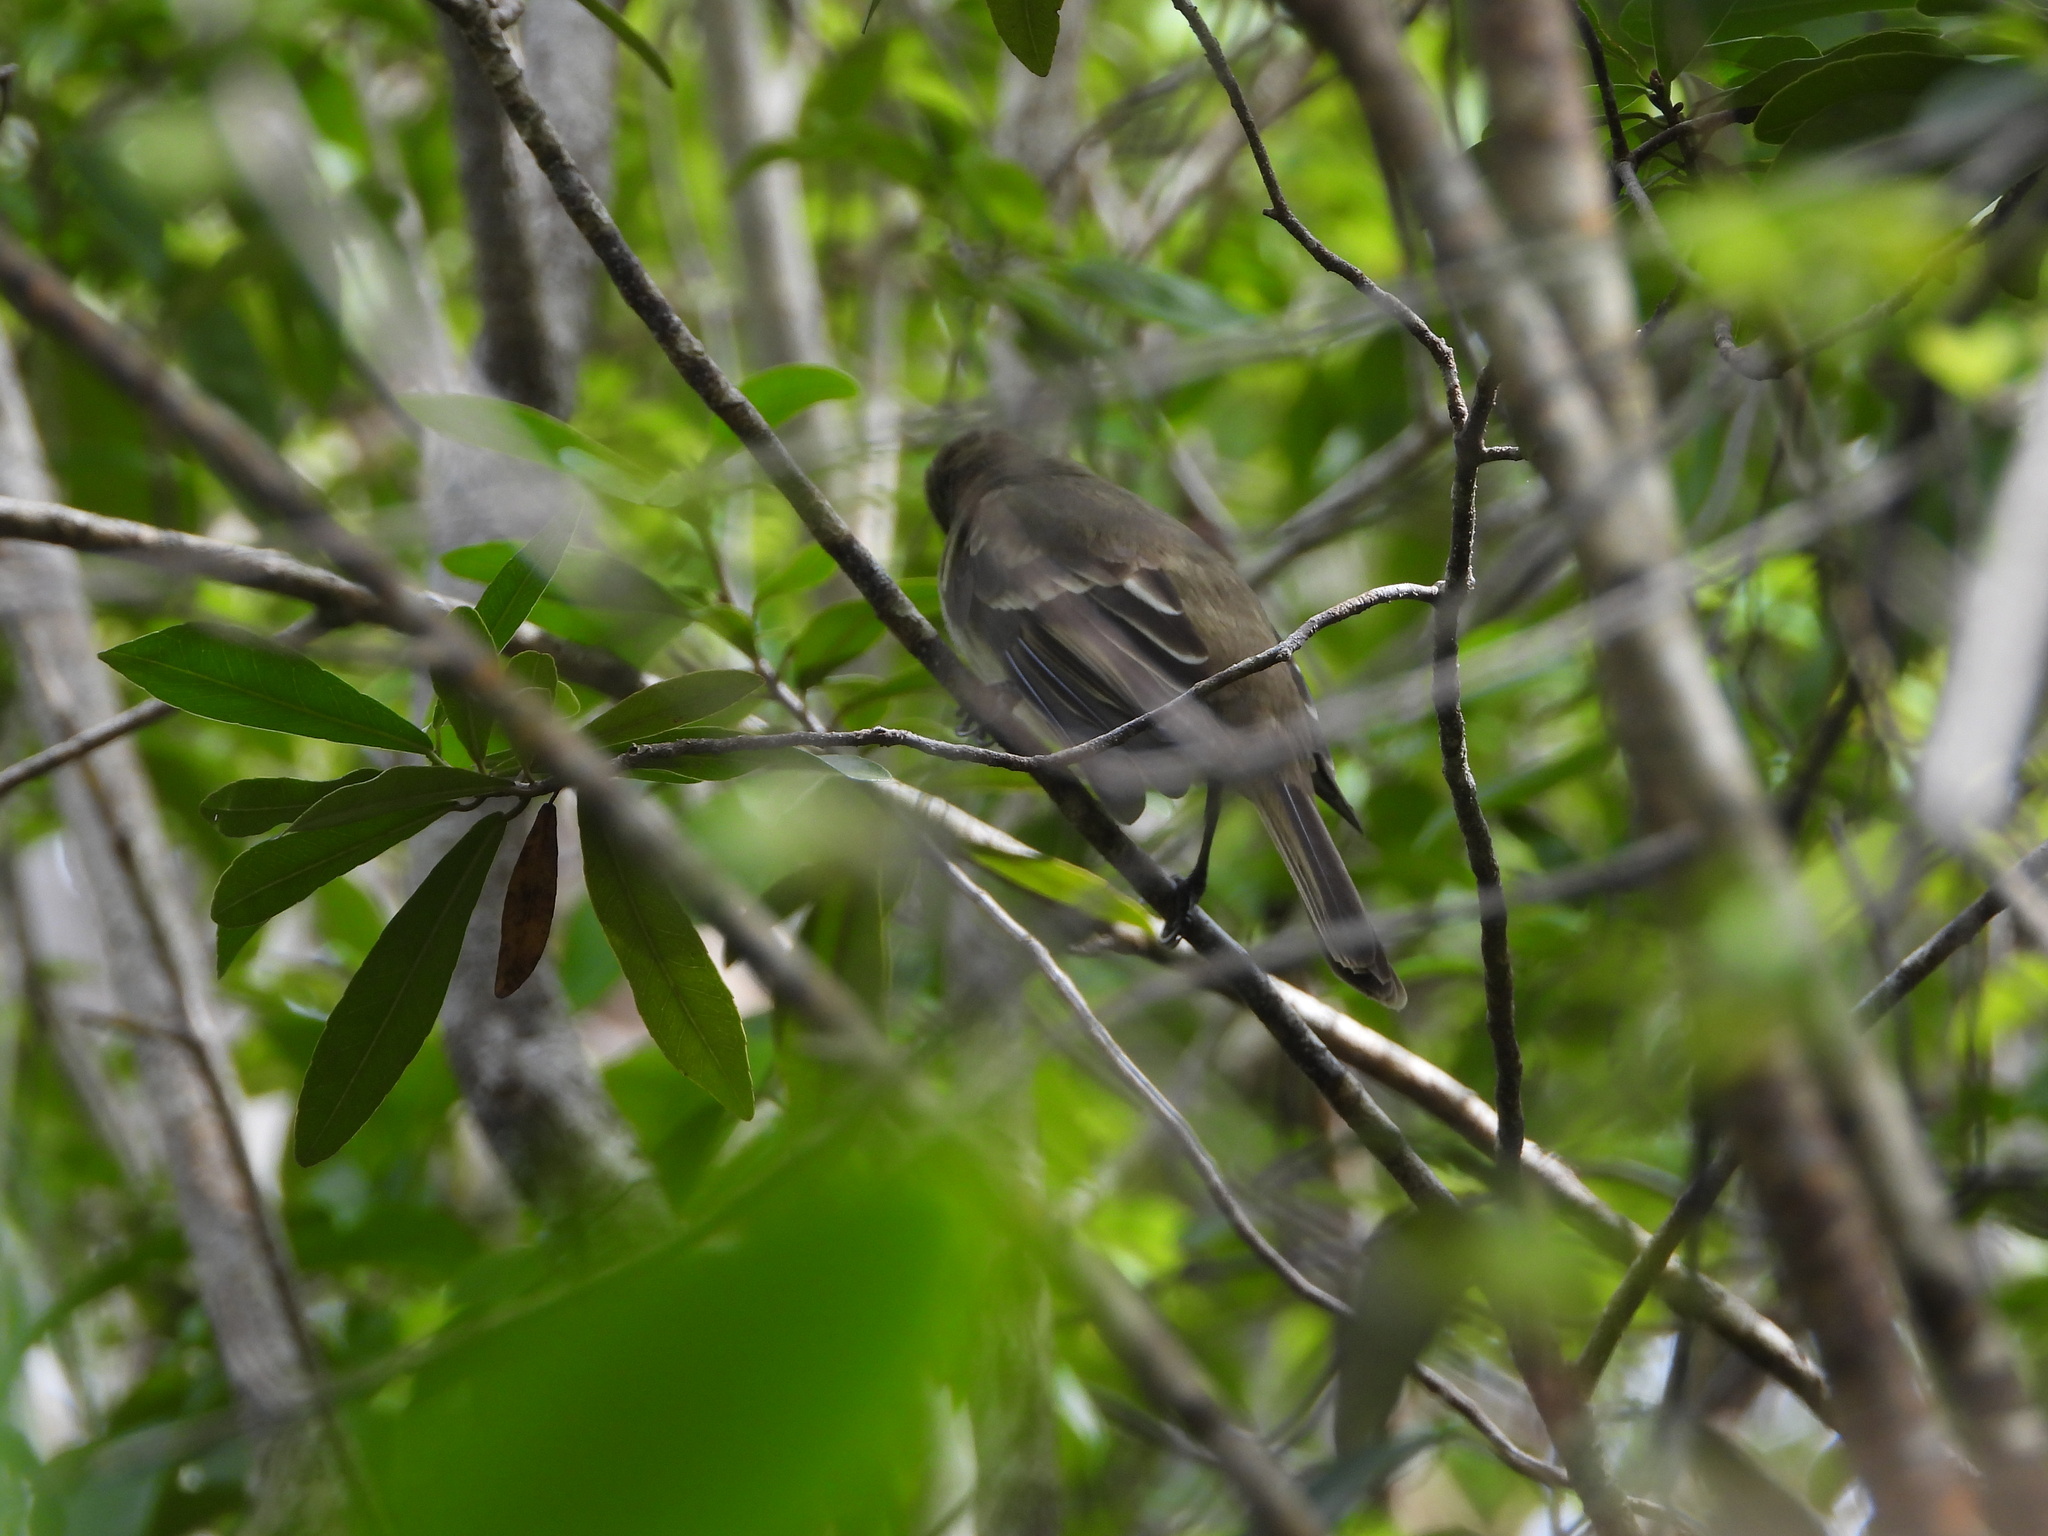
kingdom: Animalia
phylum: Chordata
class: Aves
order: Passeriformes
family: Tyrannidae
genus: Elaenia
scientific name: Elaenia martinica
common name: Caribbean elaenia
